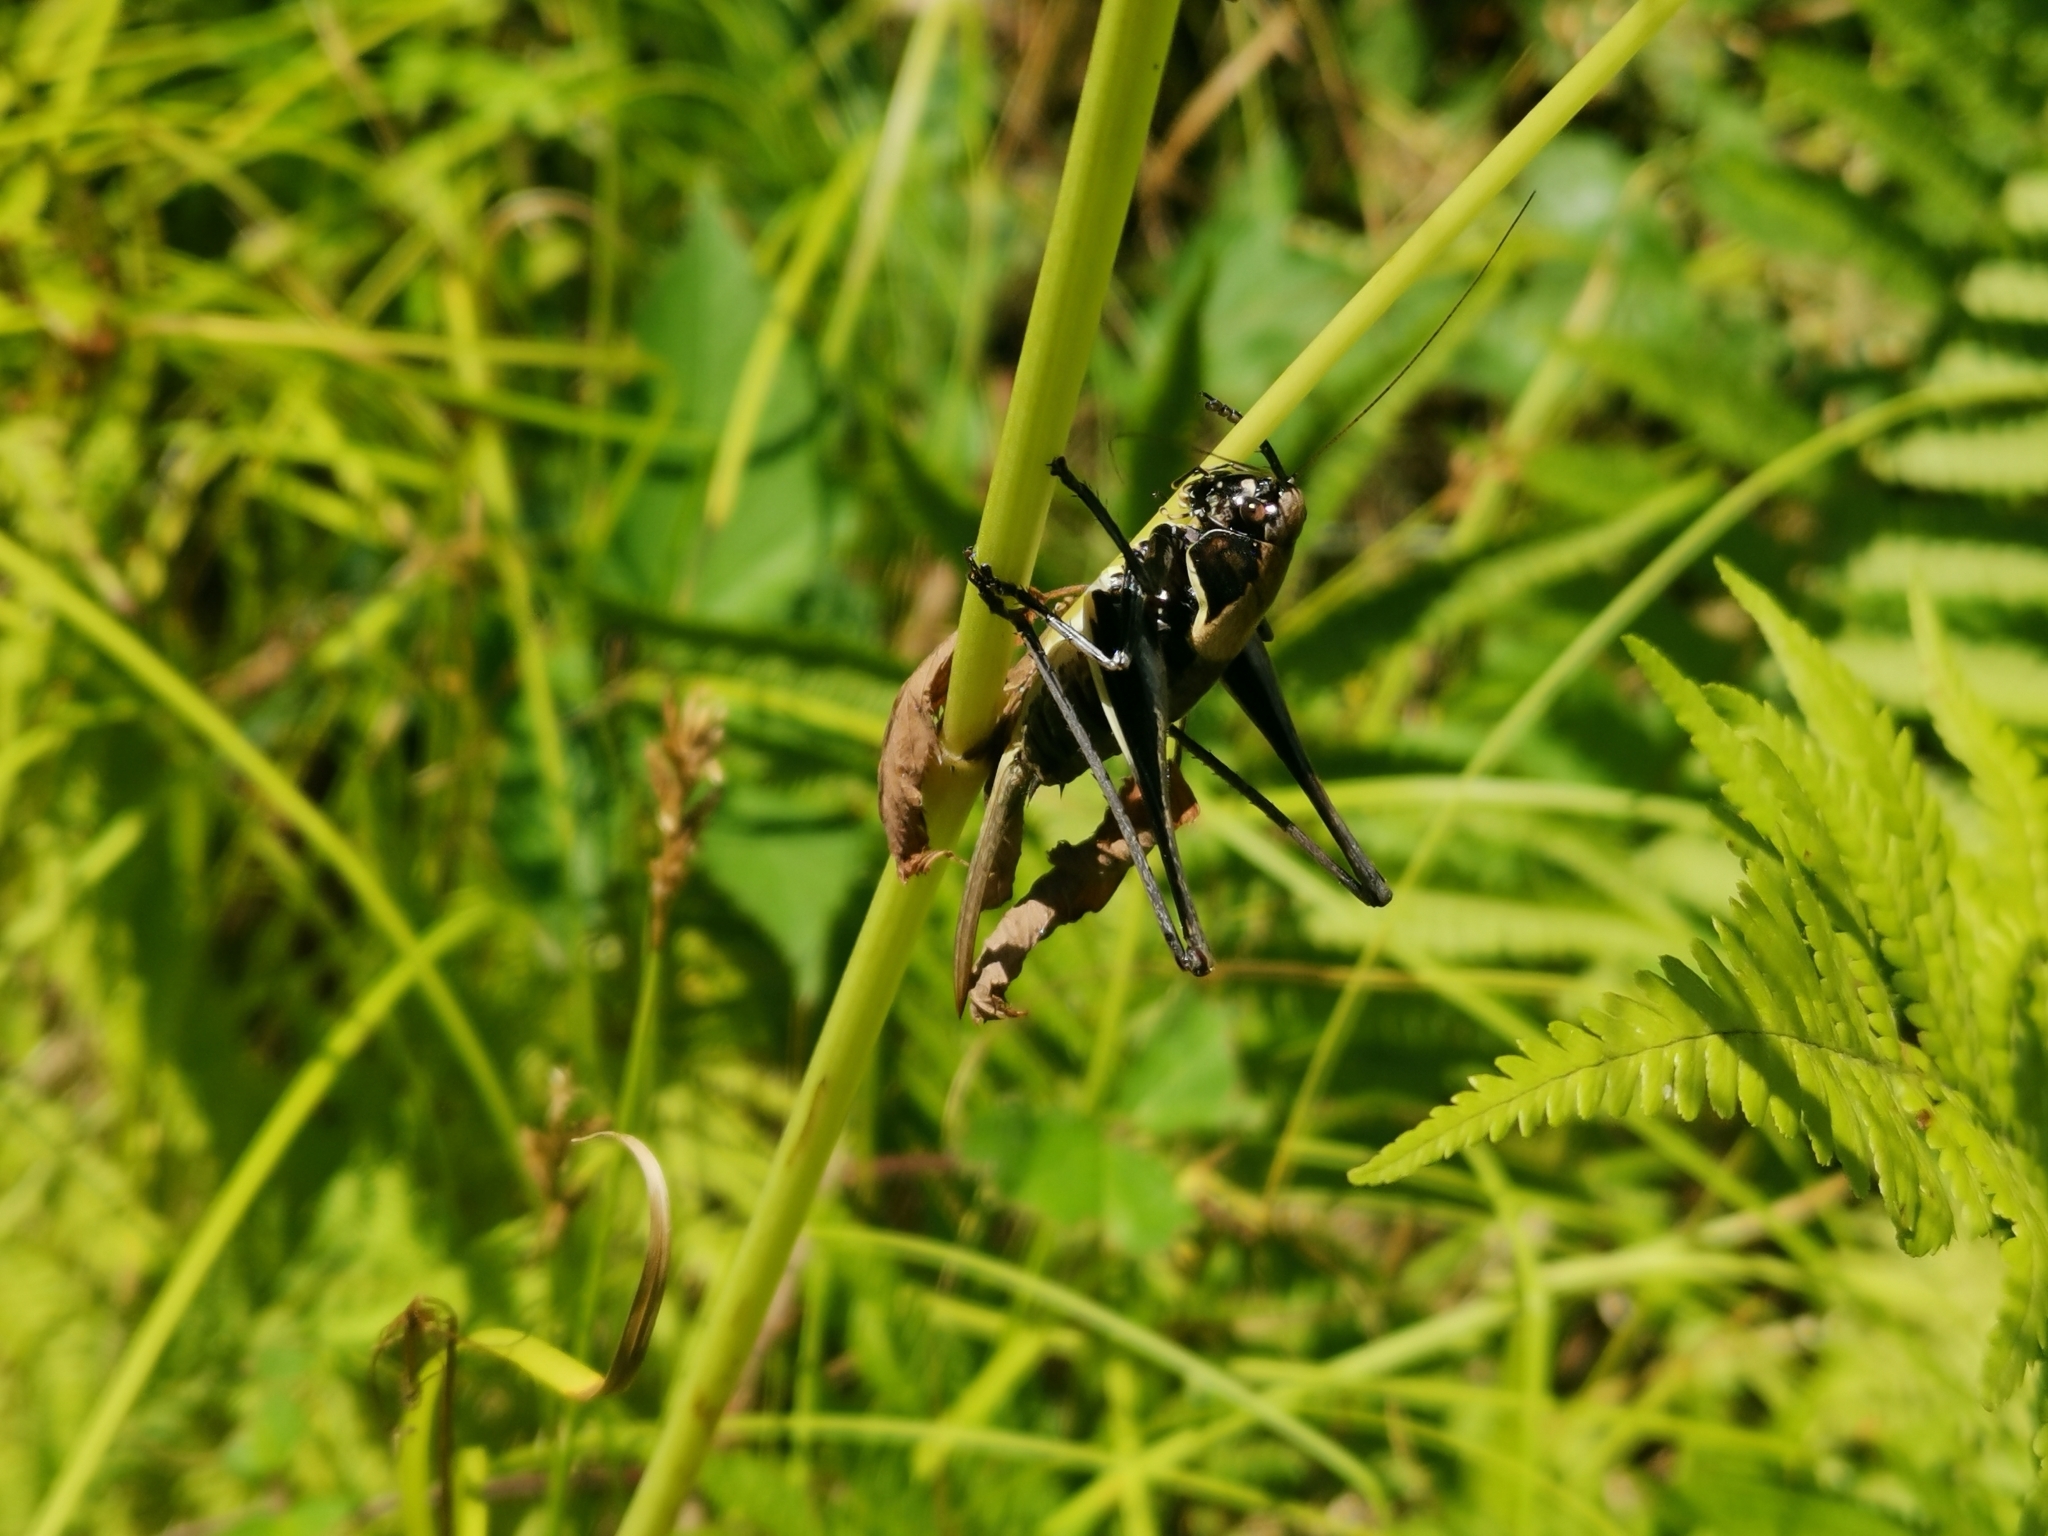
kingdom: Animalia
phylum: Arthropoda
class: Insecta
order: Orthoptera
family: Tettigoniidae
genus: Pholidoptera
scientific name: Pholidoptera aptera
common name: Alpine dark bush-cricket
